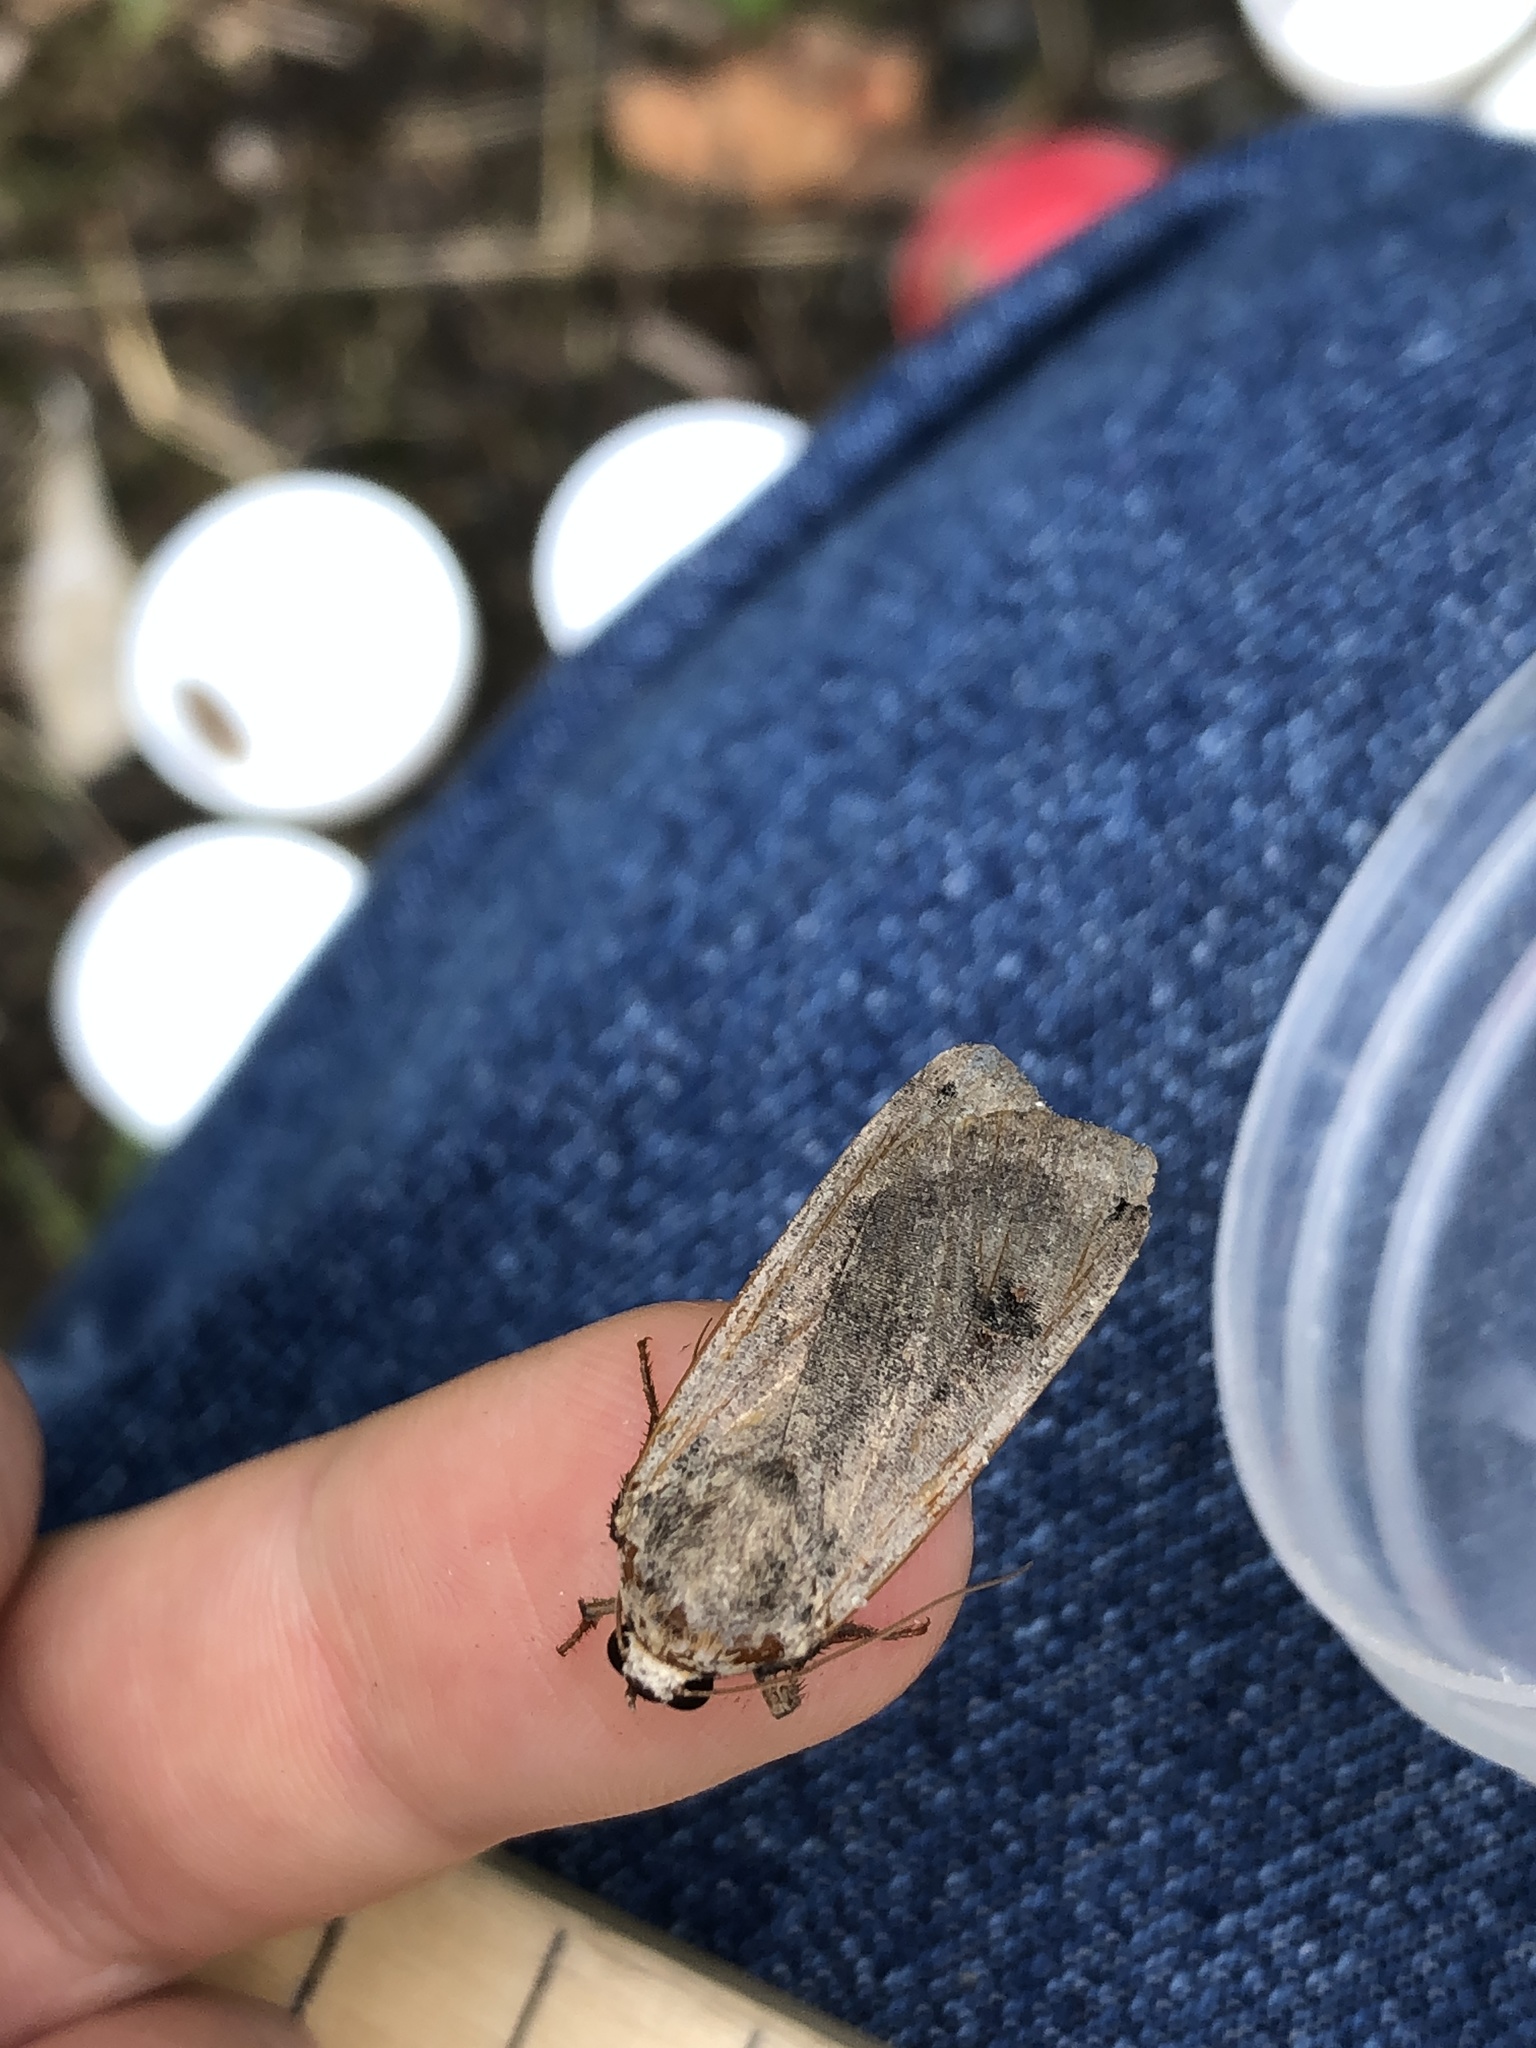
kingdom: Animalia
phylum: Arthropoda
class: Insecta
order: Lepidoptera
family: Noctuidae
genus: Noctua
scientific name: Noctua pronuba
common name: Large yellow underwing
